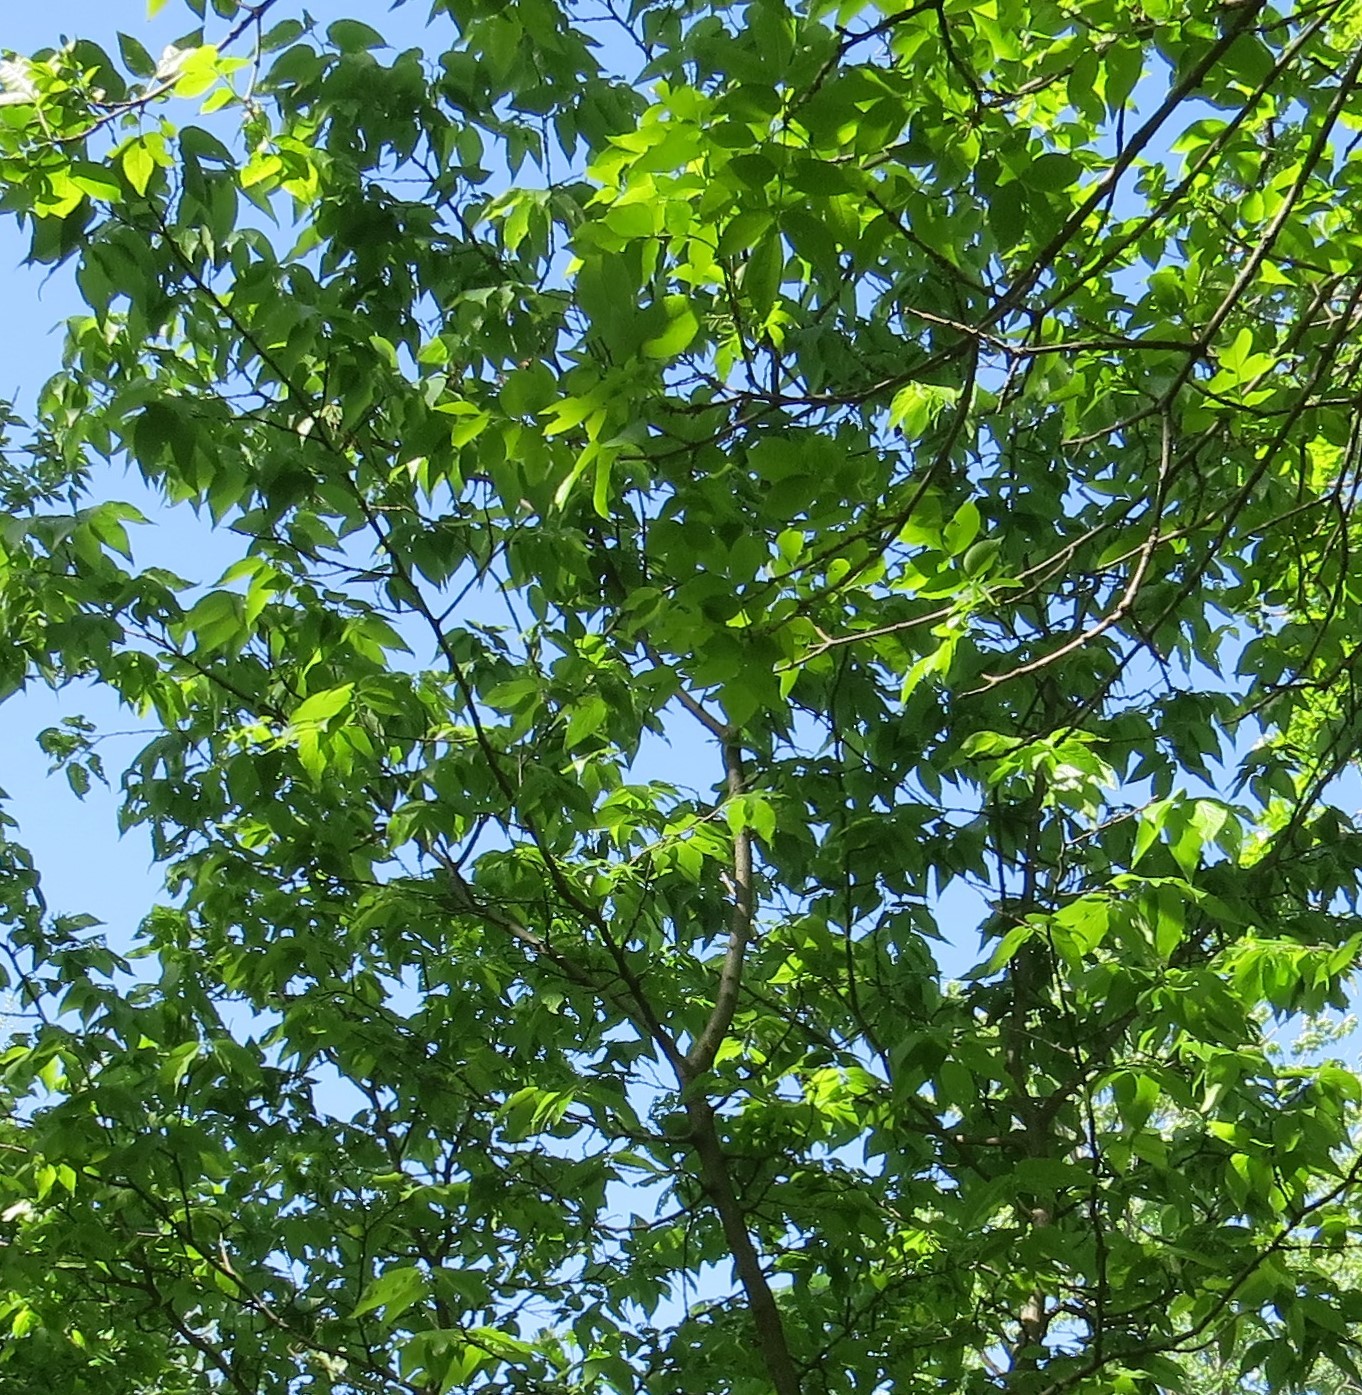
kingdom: Plantae
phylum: Tracheophyta
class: Magnoliopsida
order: Rosales
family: Cannabaceae
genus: Celtis
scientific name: Celtis occidentalis
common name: Common hackberry
